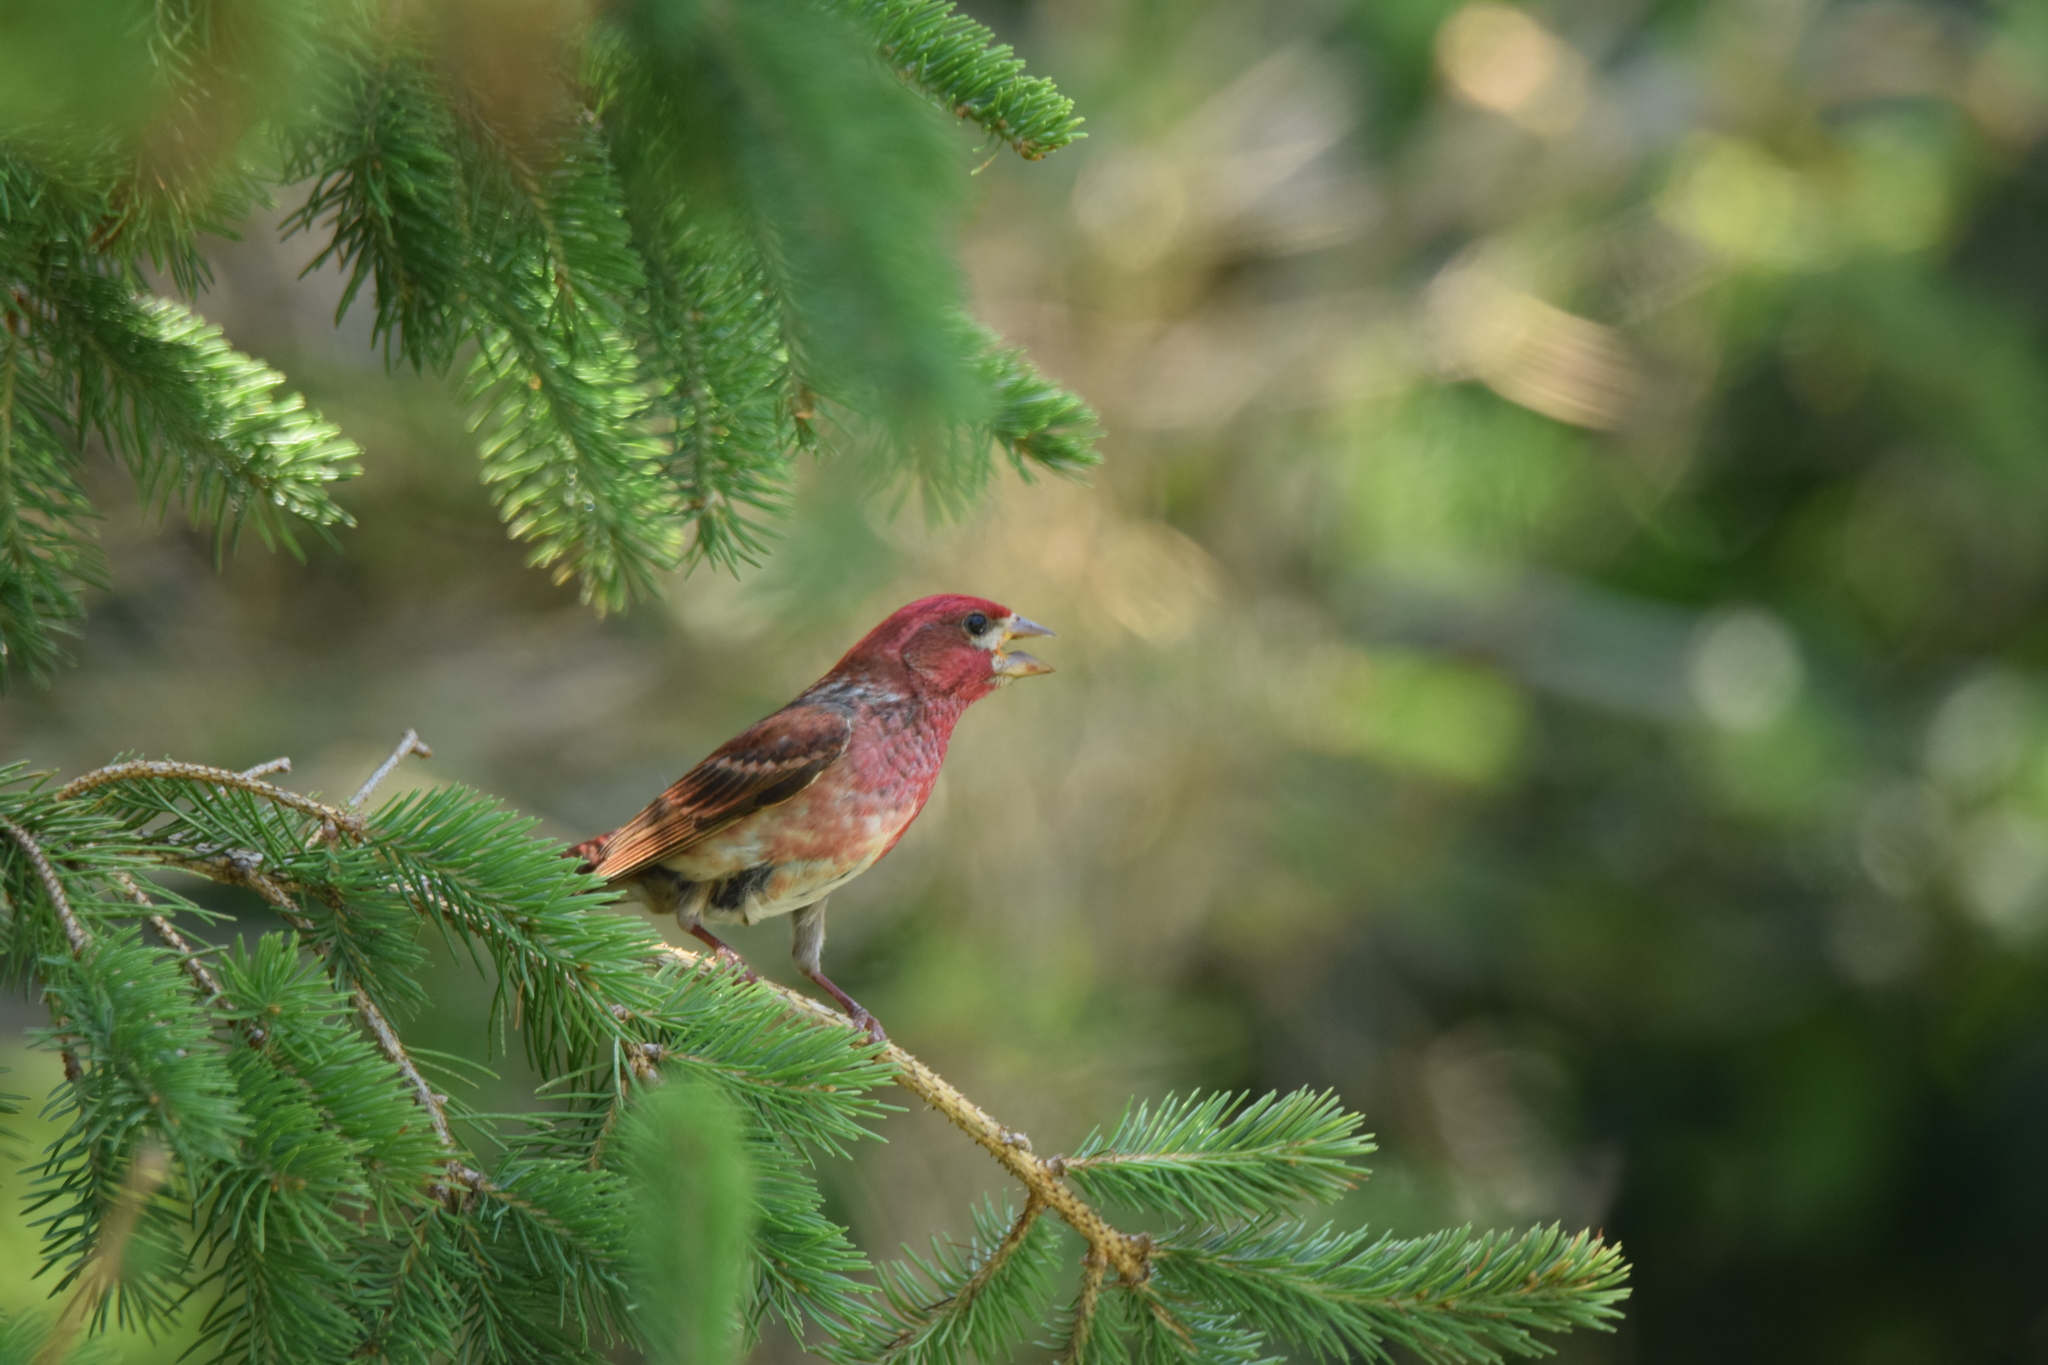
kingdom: Animalia
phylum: Chordata
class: Aves
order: Passeriformes
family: Fringillidae
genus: Haemorhous
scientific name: Haemorhous purpureus
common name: Purple finch
